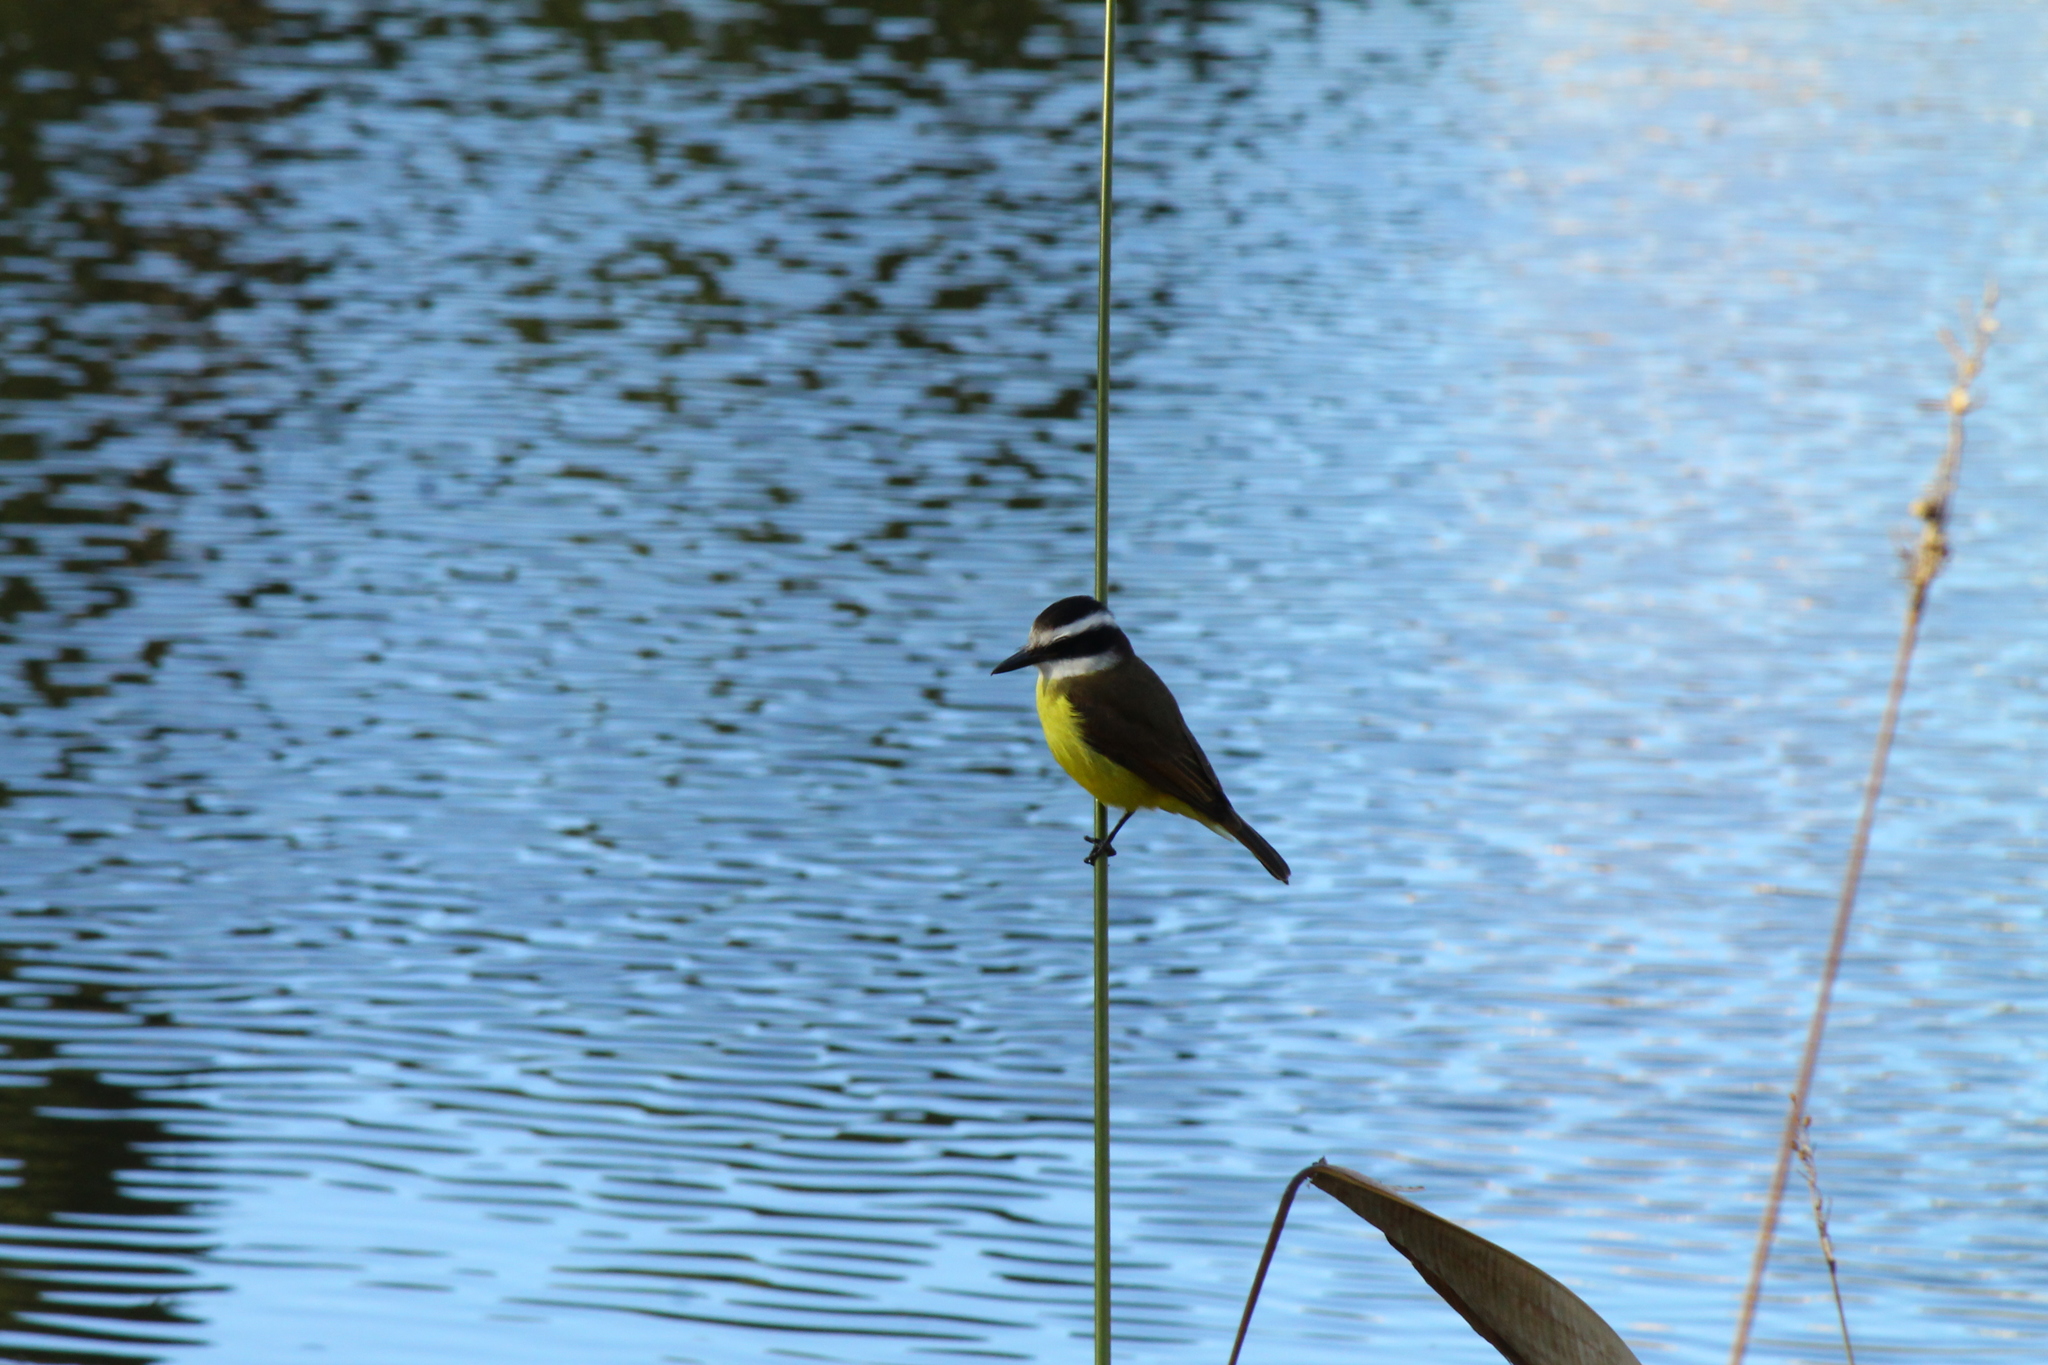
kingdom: Animalia
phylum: Chordata
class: Aves
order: Passeriformes
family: Tyrannidae
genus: Pitangus
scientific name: Pitangus sulphuratus
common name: Great kiskadee
